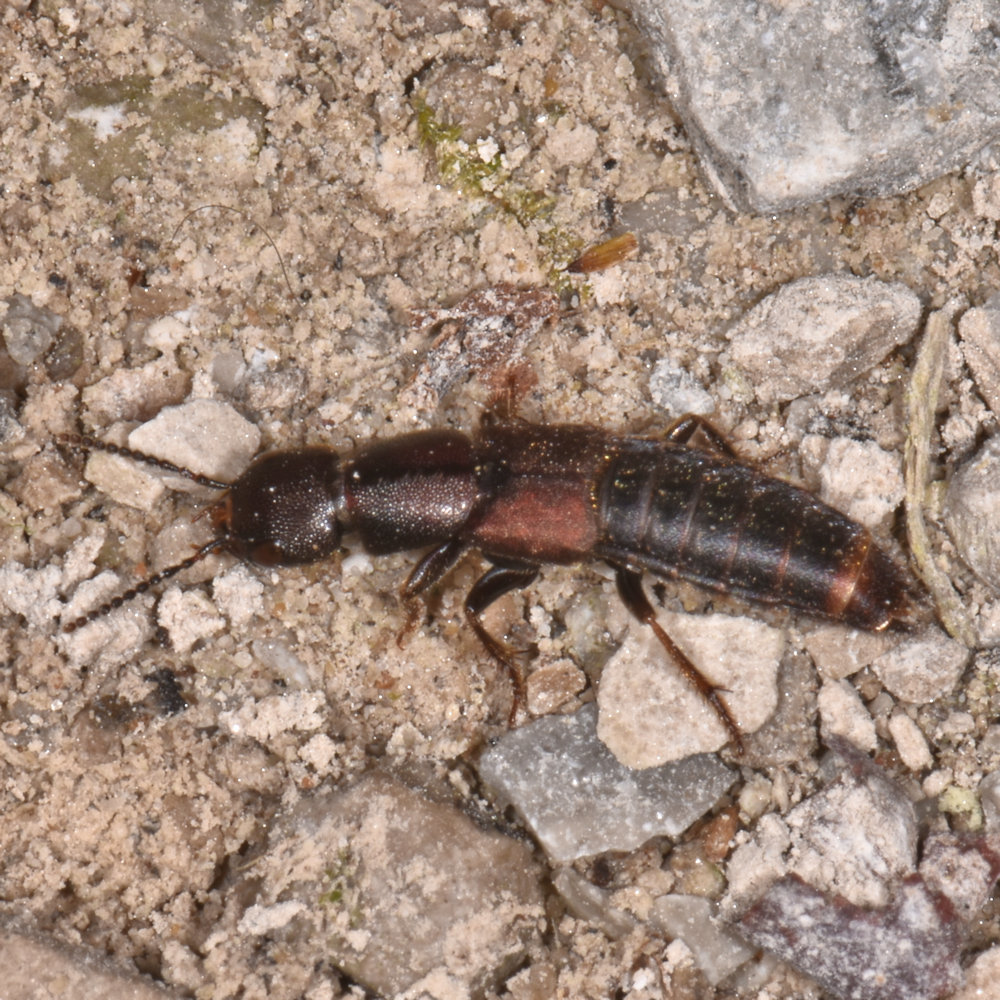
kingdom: Animalia
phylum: Arthropoda
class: Insecta
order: Coleoptera
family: Staphylinidae
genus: Platydracus
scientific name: Platydracus zonatus
